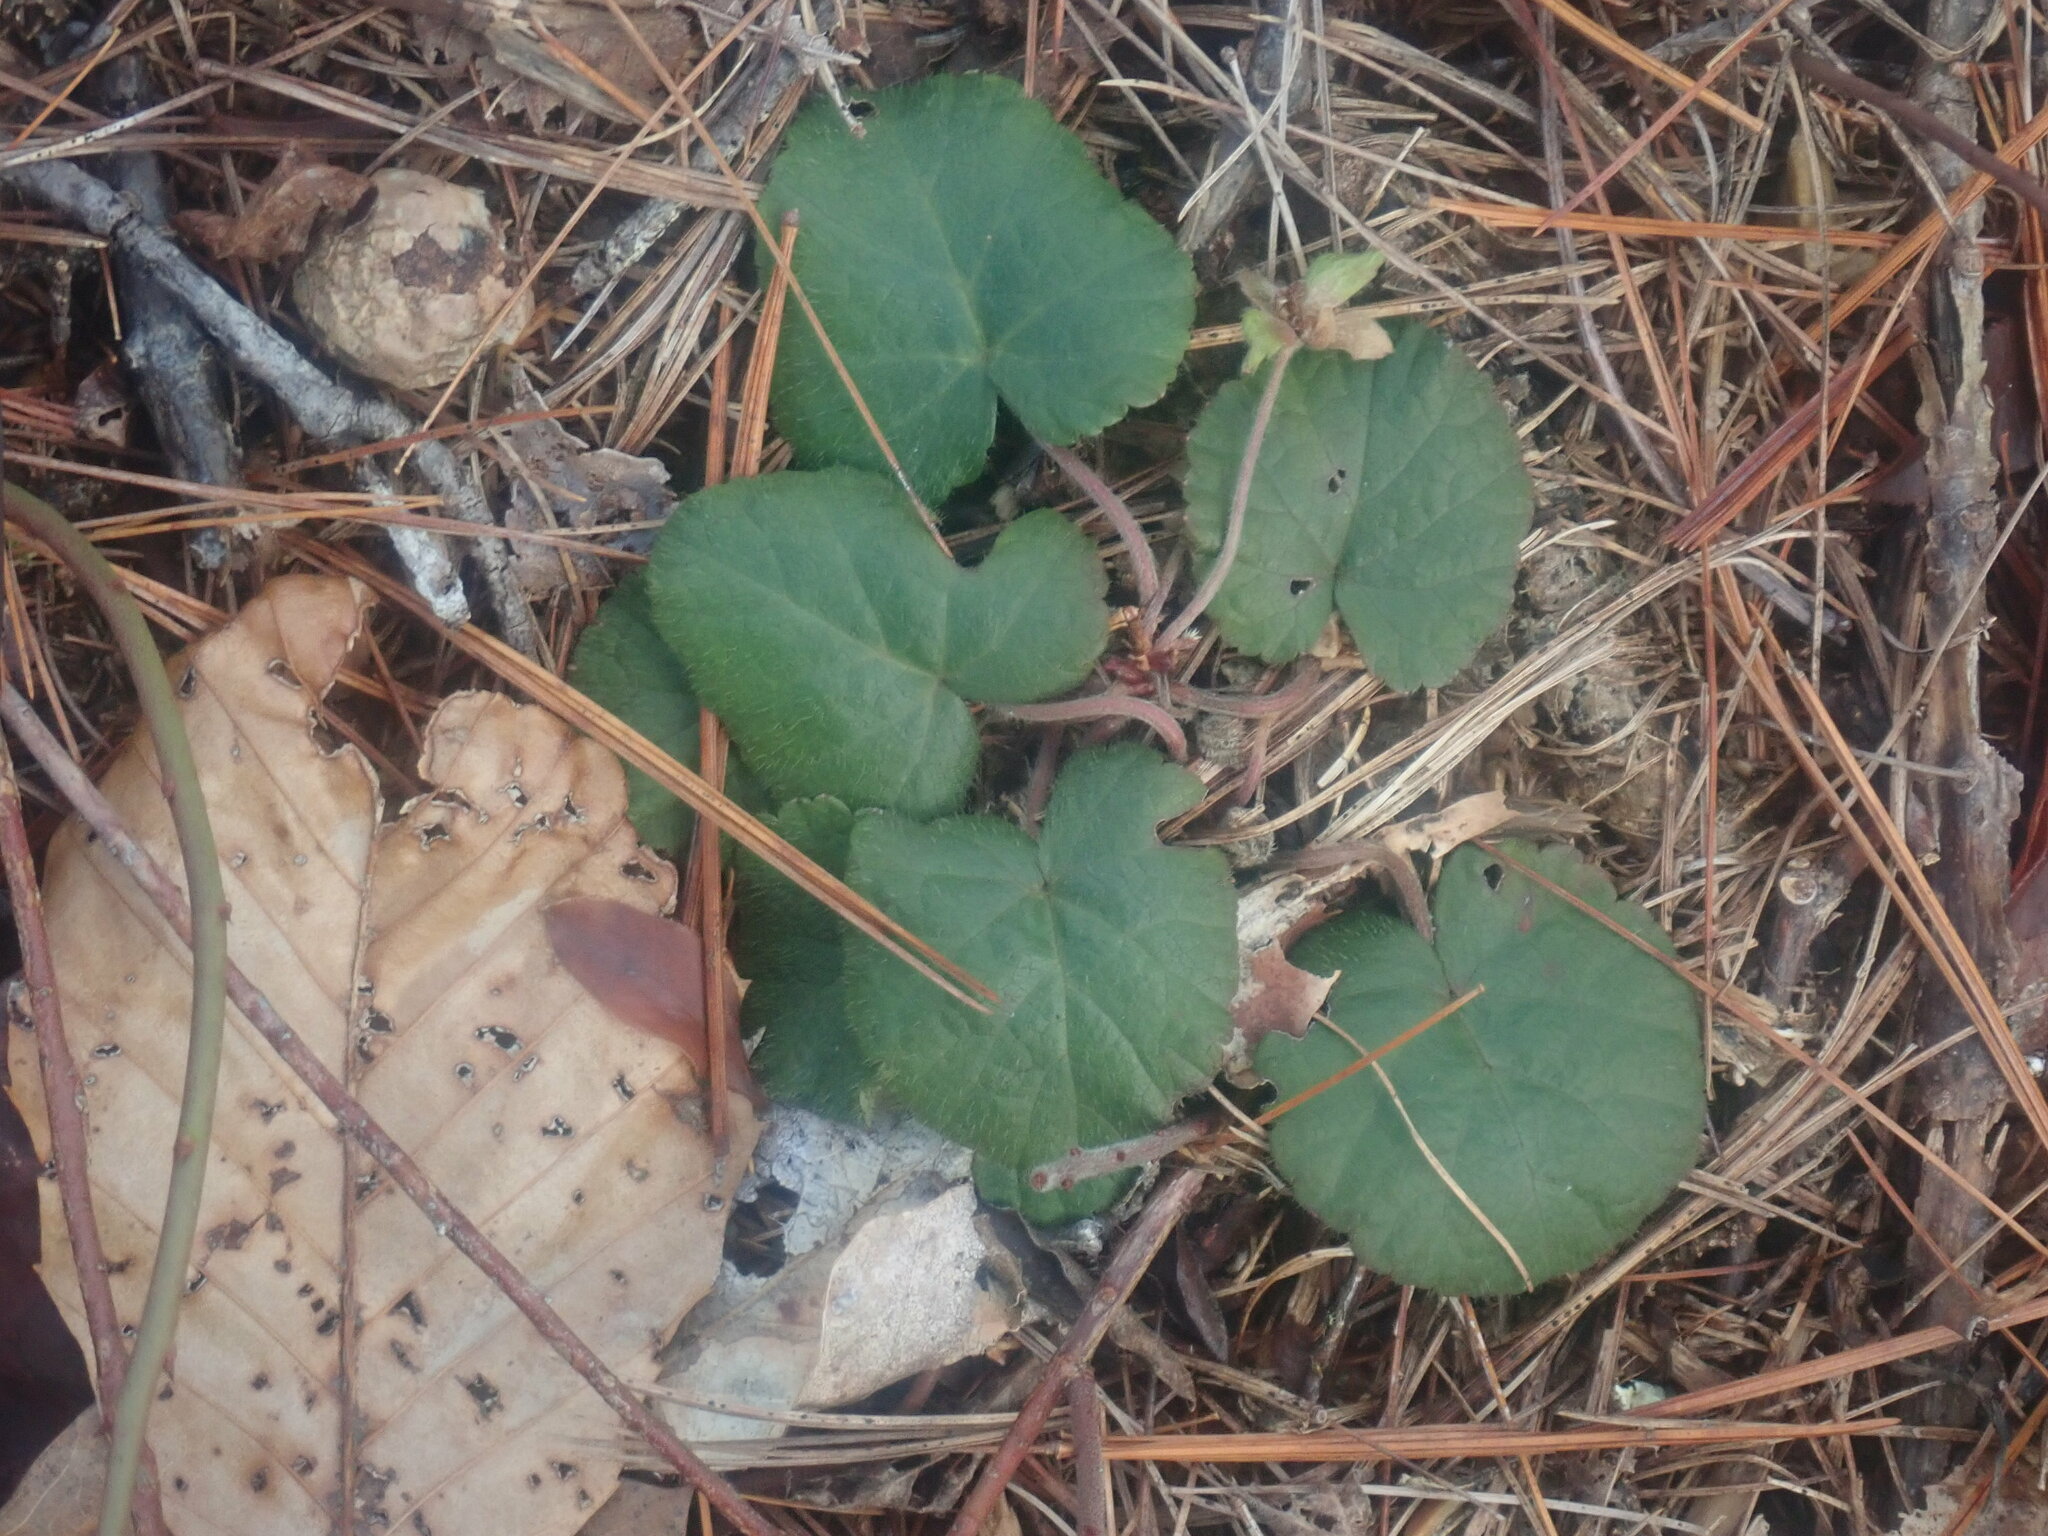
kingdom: Plantae
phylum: Tracheophyta
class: Magnoliopsida
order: Rosales
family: Rosaceae
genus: Dalibarda
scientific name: Dalibarda repens
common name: Dewdrop
